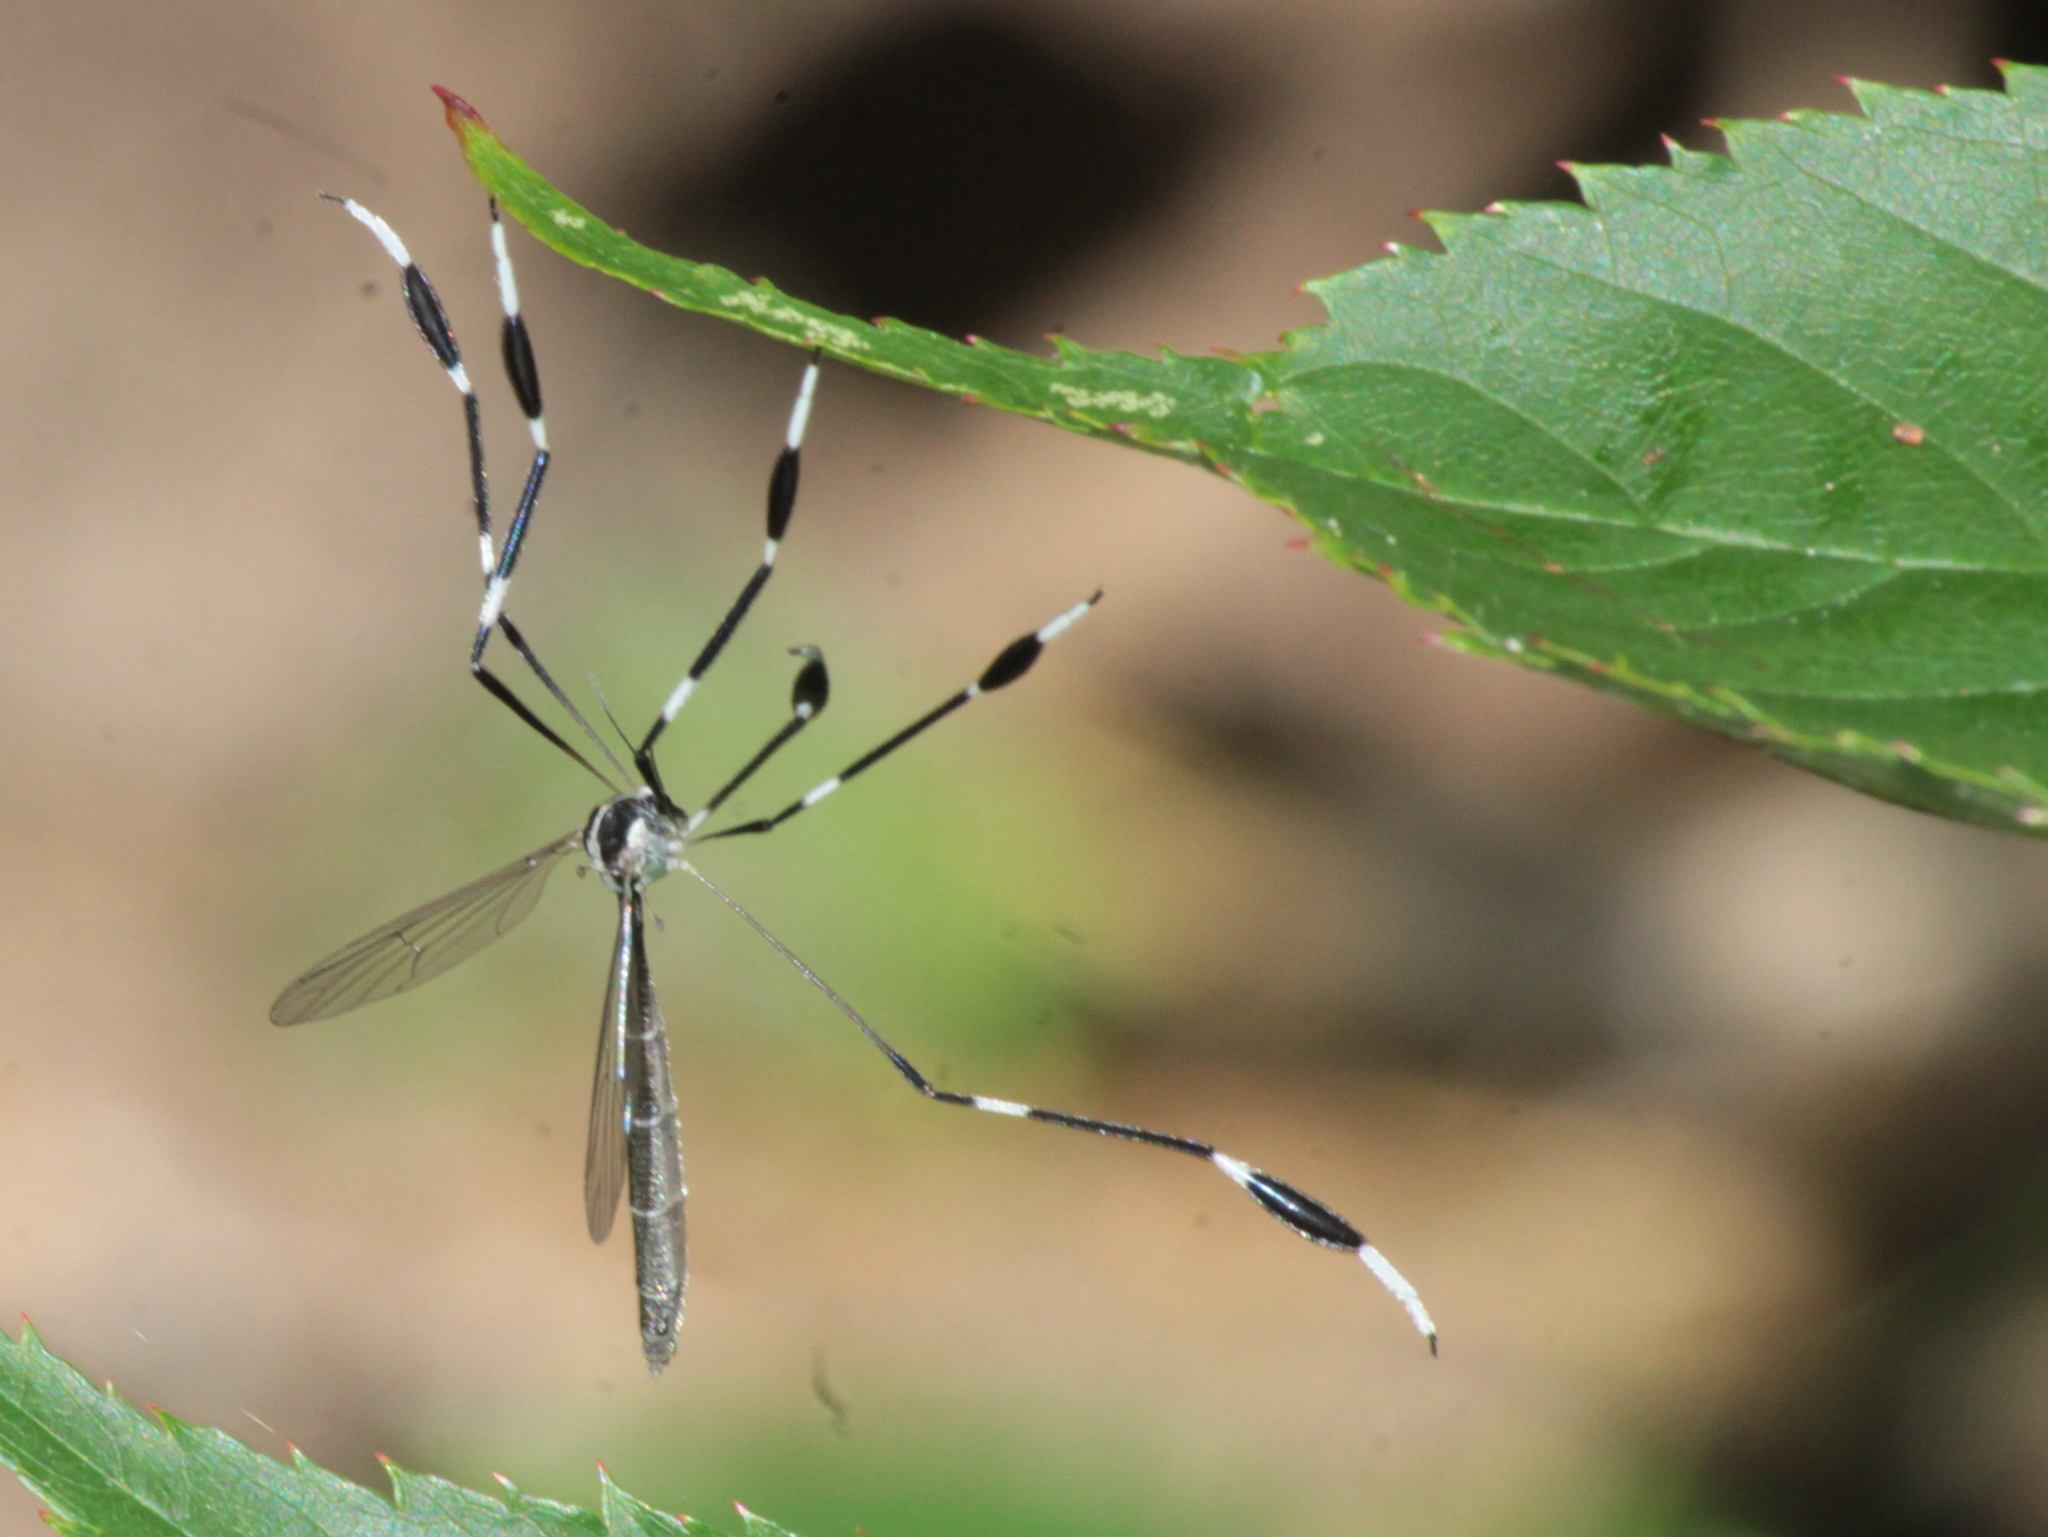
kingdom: Animalia
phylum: Arthropoda
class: Insecta
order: Diptera
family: Ptychopteridae
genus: Bittacomorpha
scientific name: Bittacomorpha clavipes
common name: Eastern phantom crane fly
